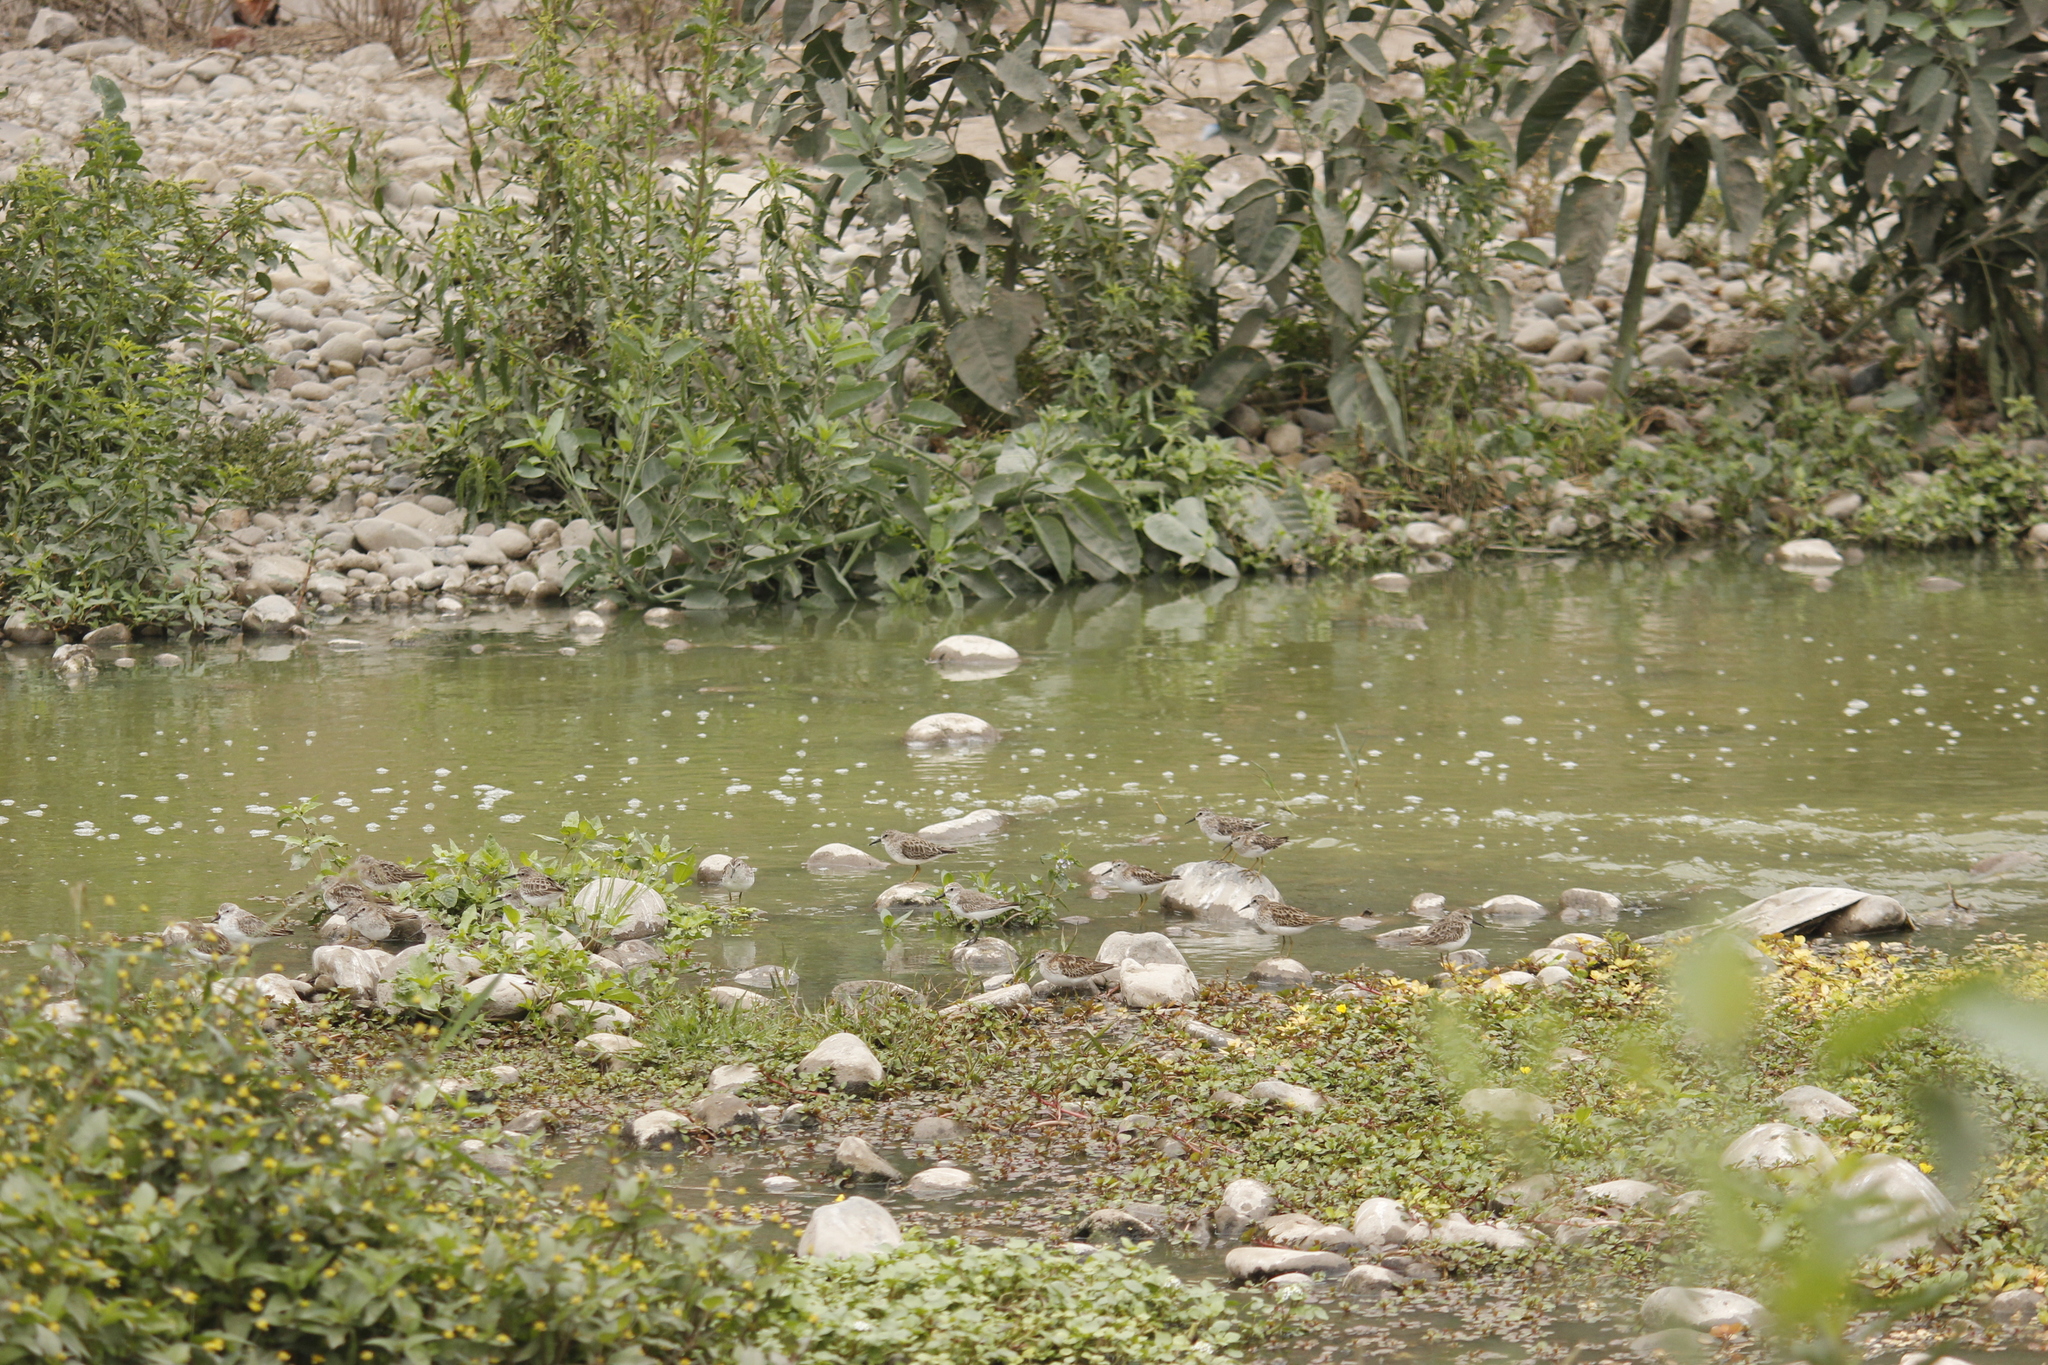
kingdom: Animalia
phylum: Chordata
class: Aves
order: Charadriiformes
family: Scolopacidae
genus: Calidris
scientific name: Calidris minutilla
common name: Least sandpiper
